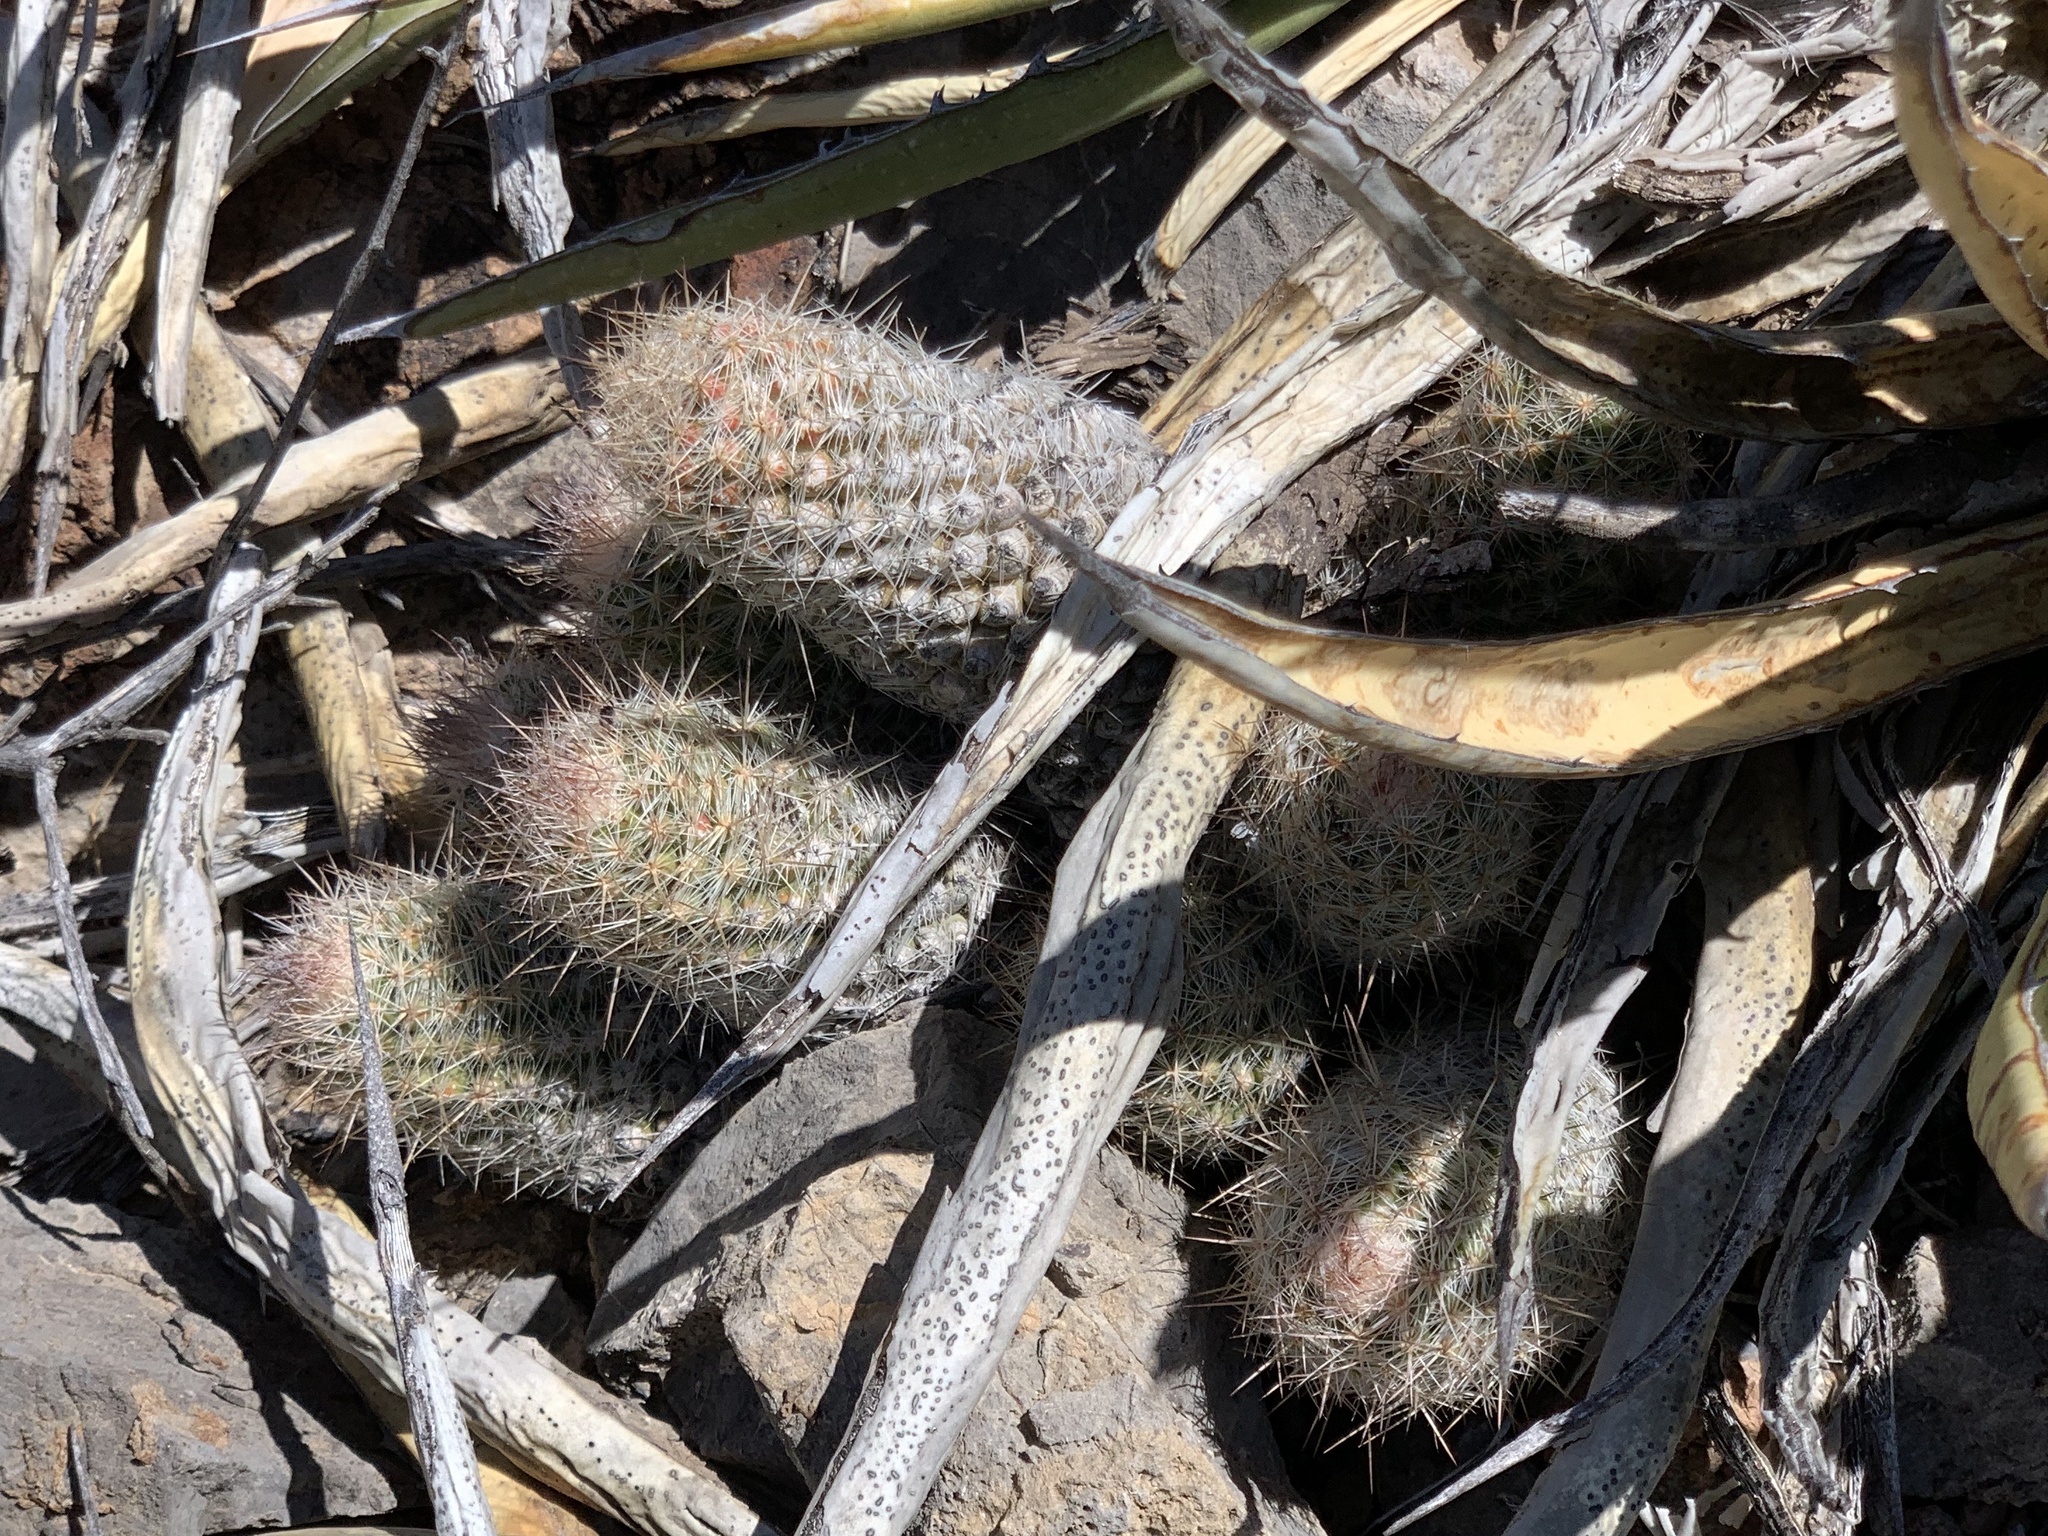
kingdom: Plantae
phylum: Tracheophyta
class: Magnoliopsida
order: Caryophyllales
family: Cactaceae
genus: Pelecyphora
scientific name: Pelecyphora tuberculosa
